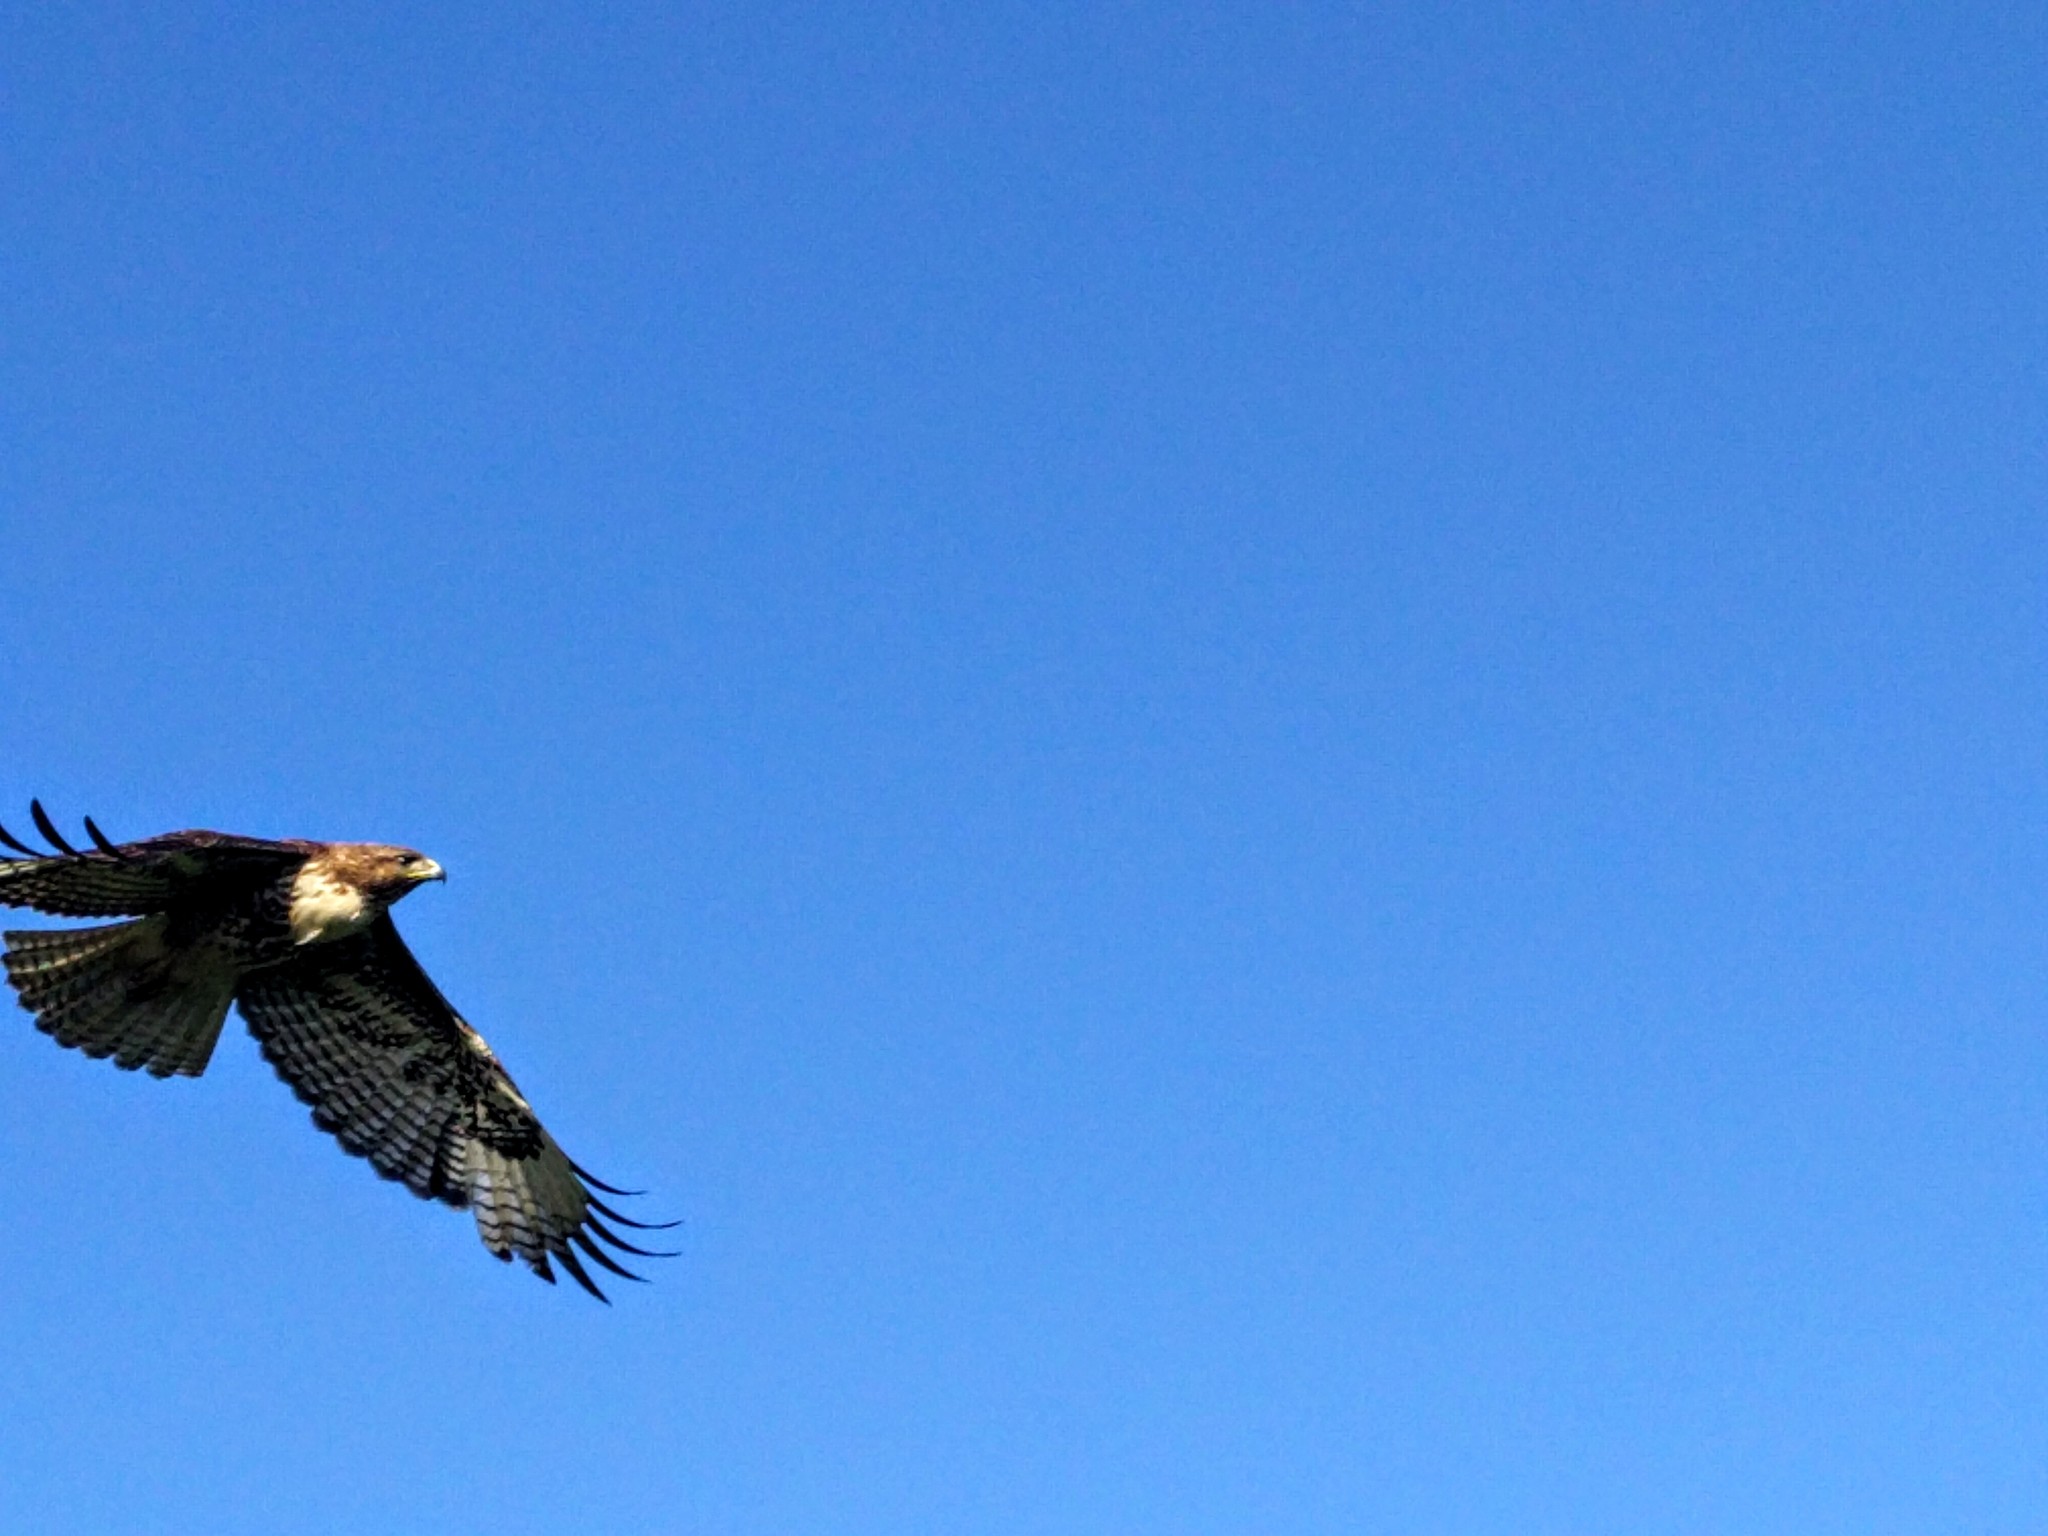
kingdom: Animalia
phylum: Chordata
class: Aves
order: Accipitriformes
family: Accipitridae
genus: Buteo
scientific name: Buteo jamaicensis
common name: Red-tailed hawk
